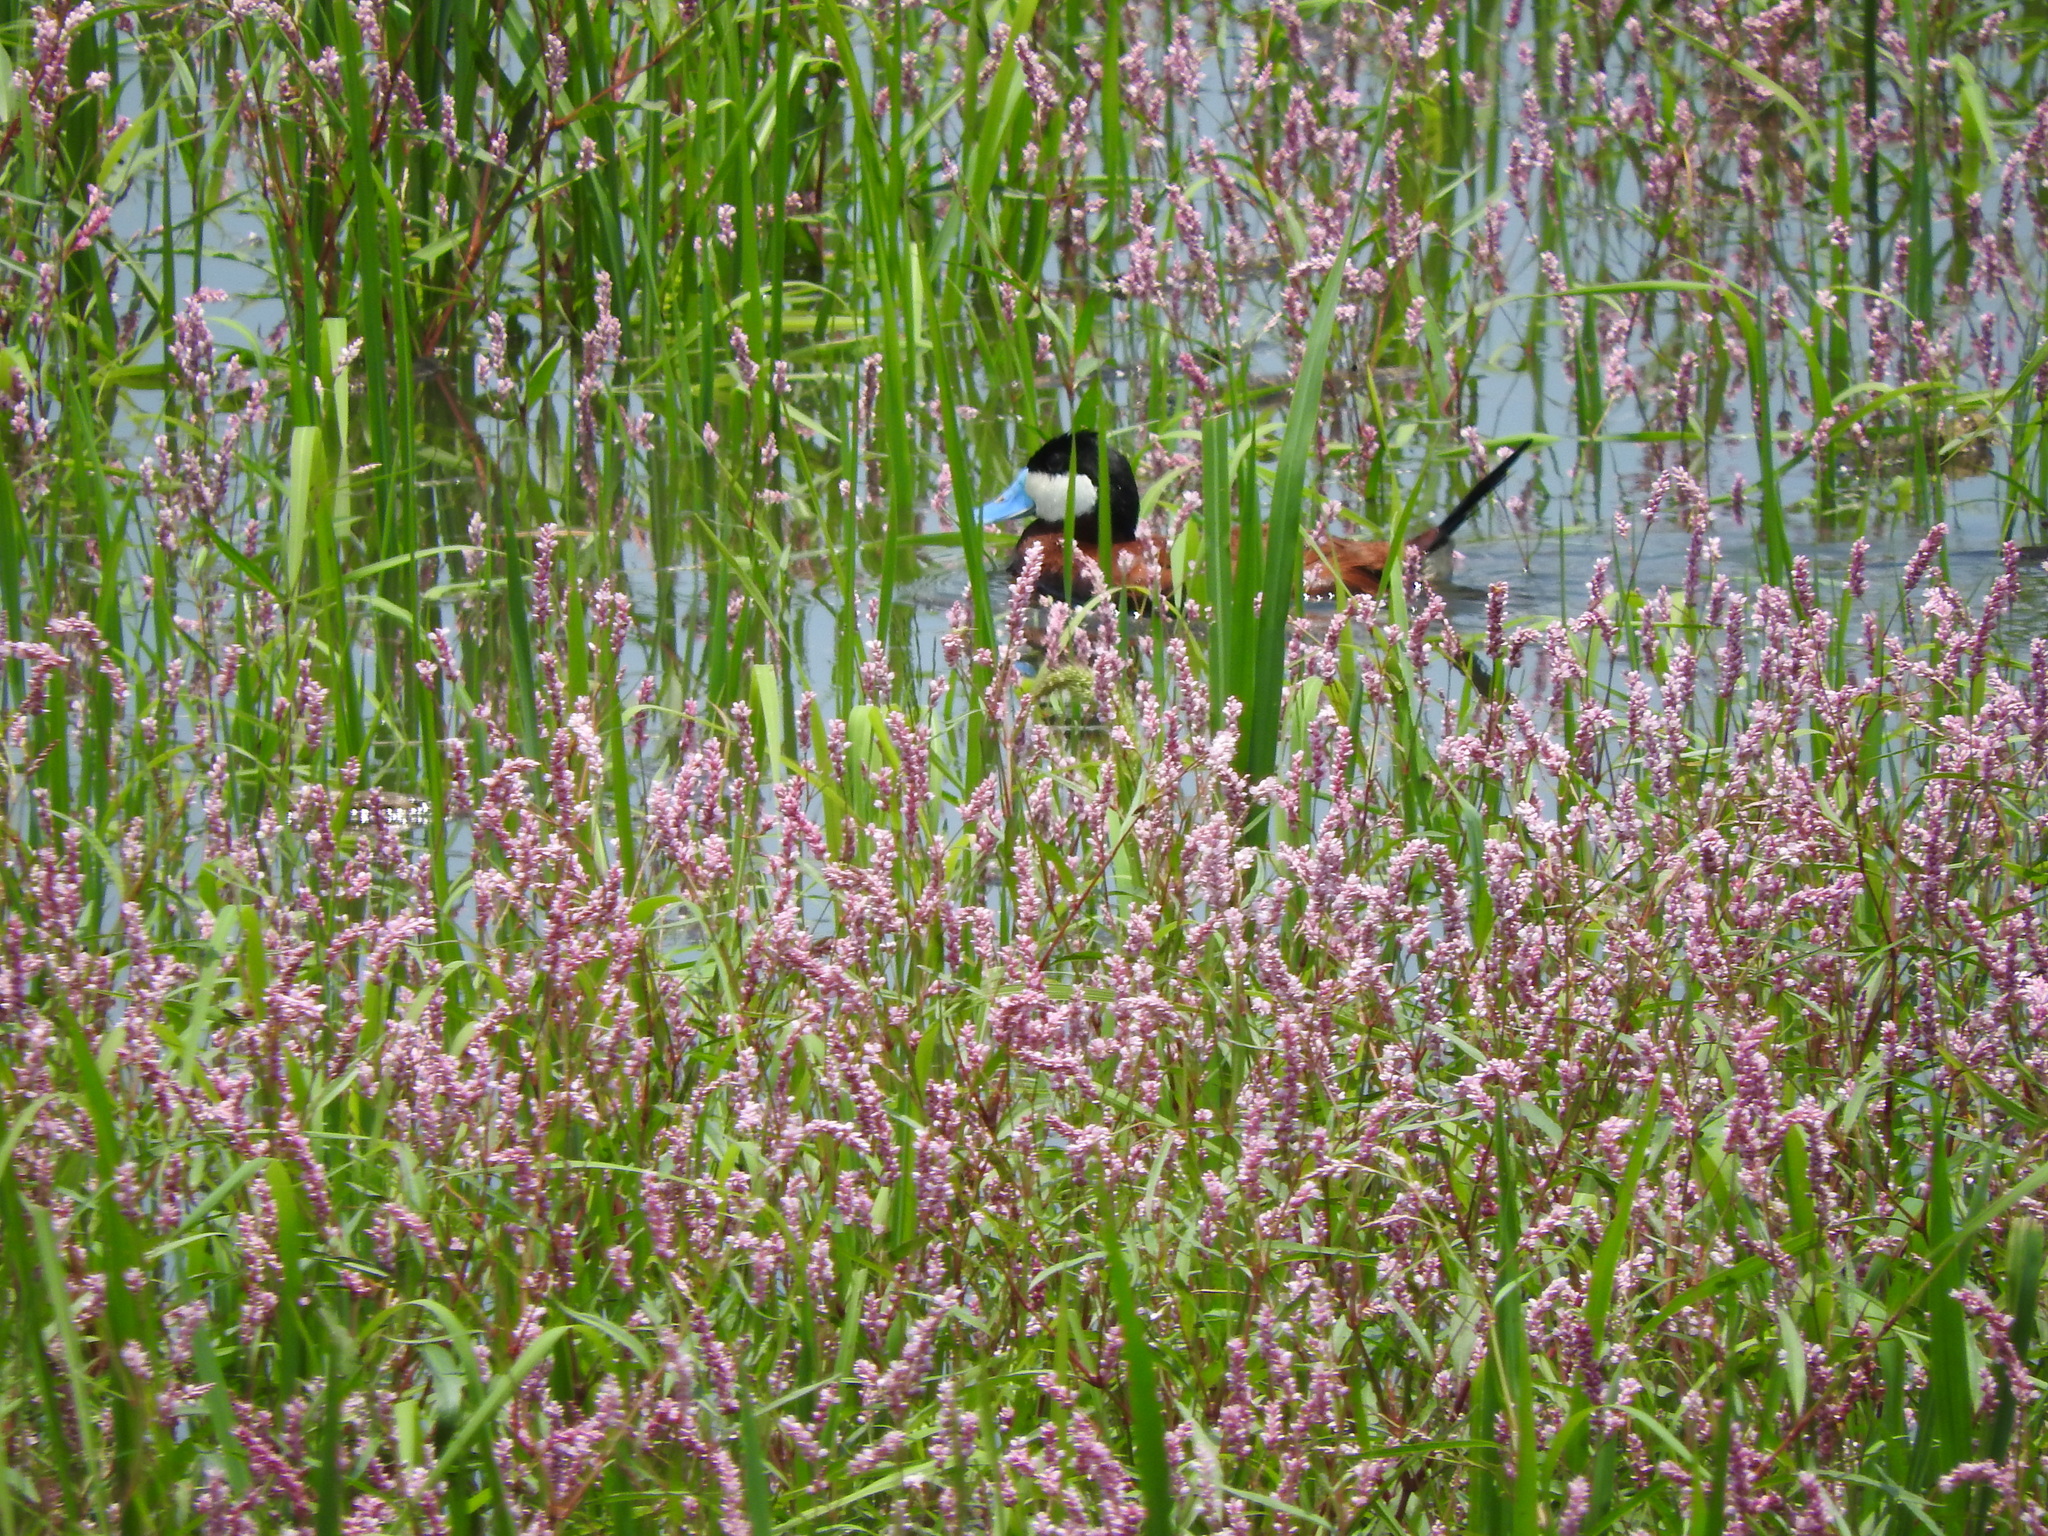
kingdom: Animalia
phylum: Chordata
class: Aves
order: Anseriformes
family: Anatidae
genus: Oxyura
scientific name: Oxyura jamaicensis
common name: Ruddy duck
